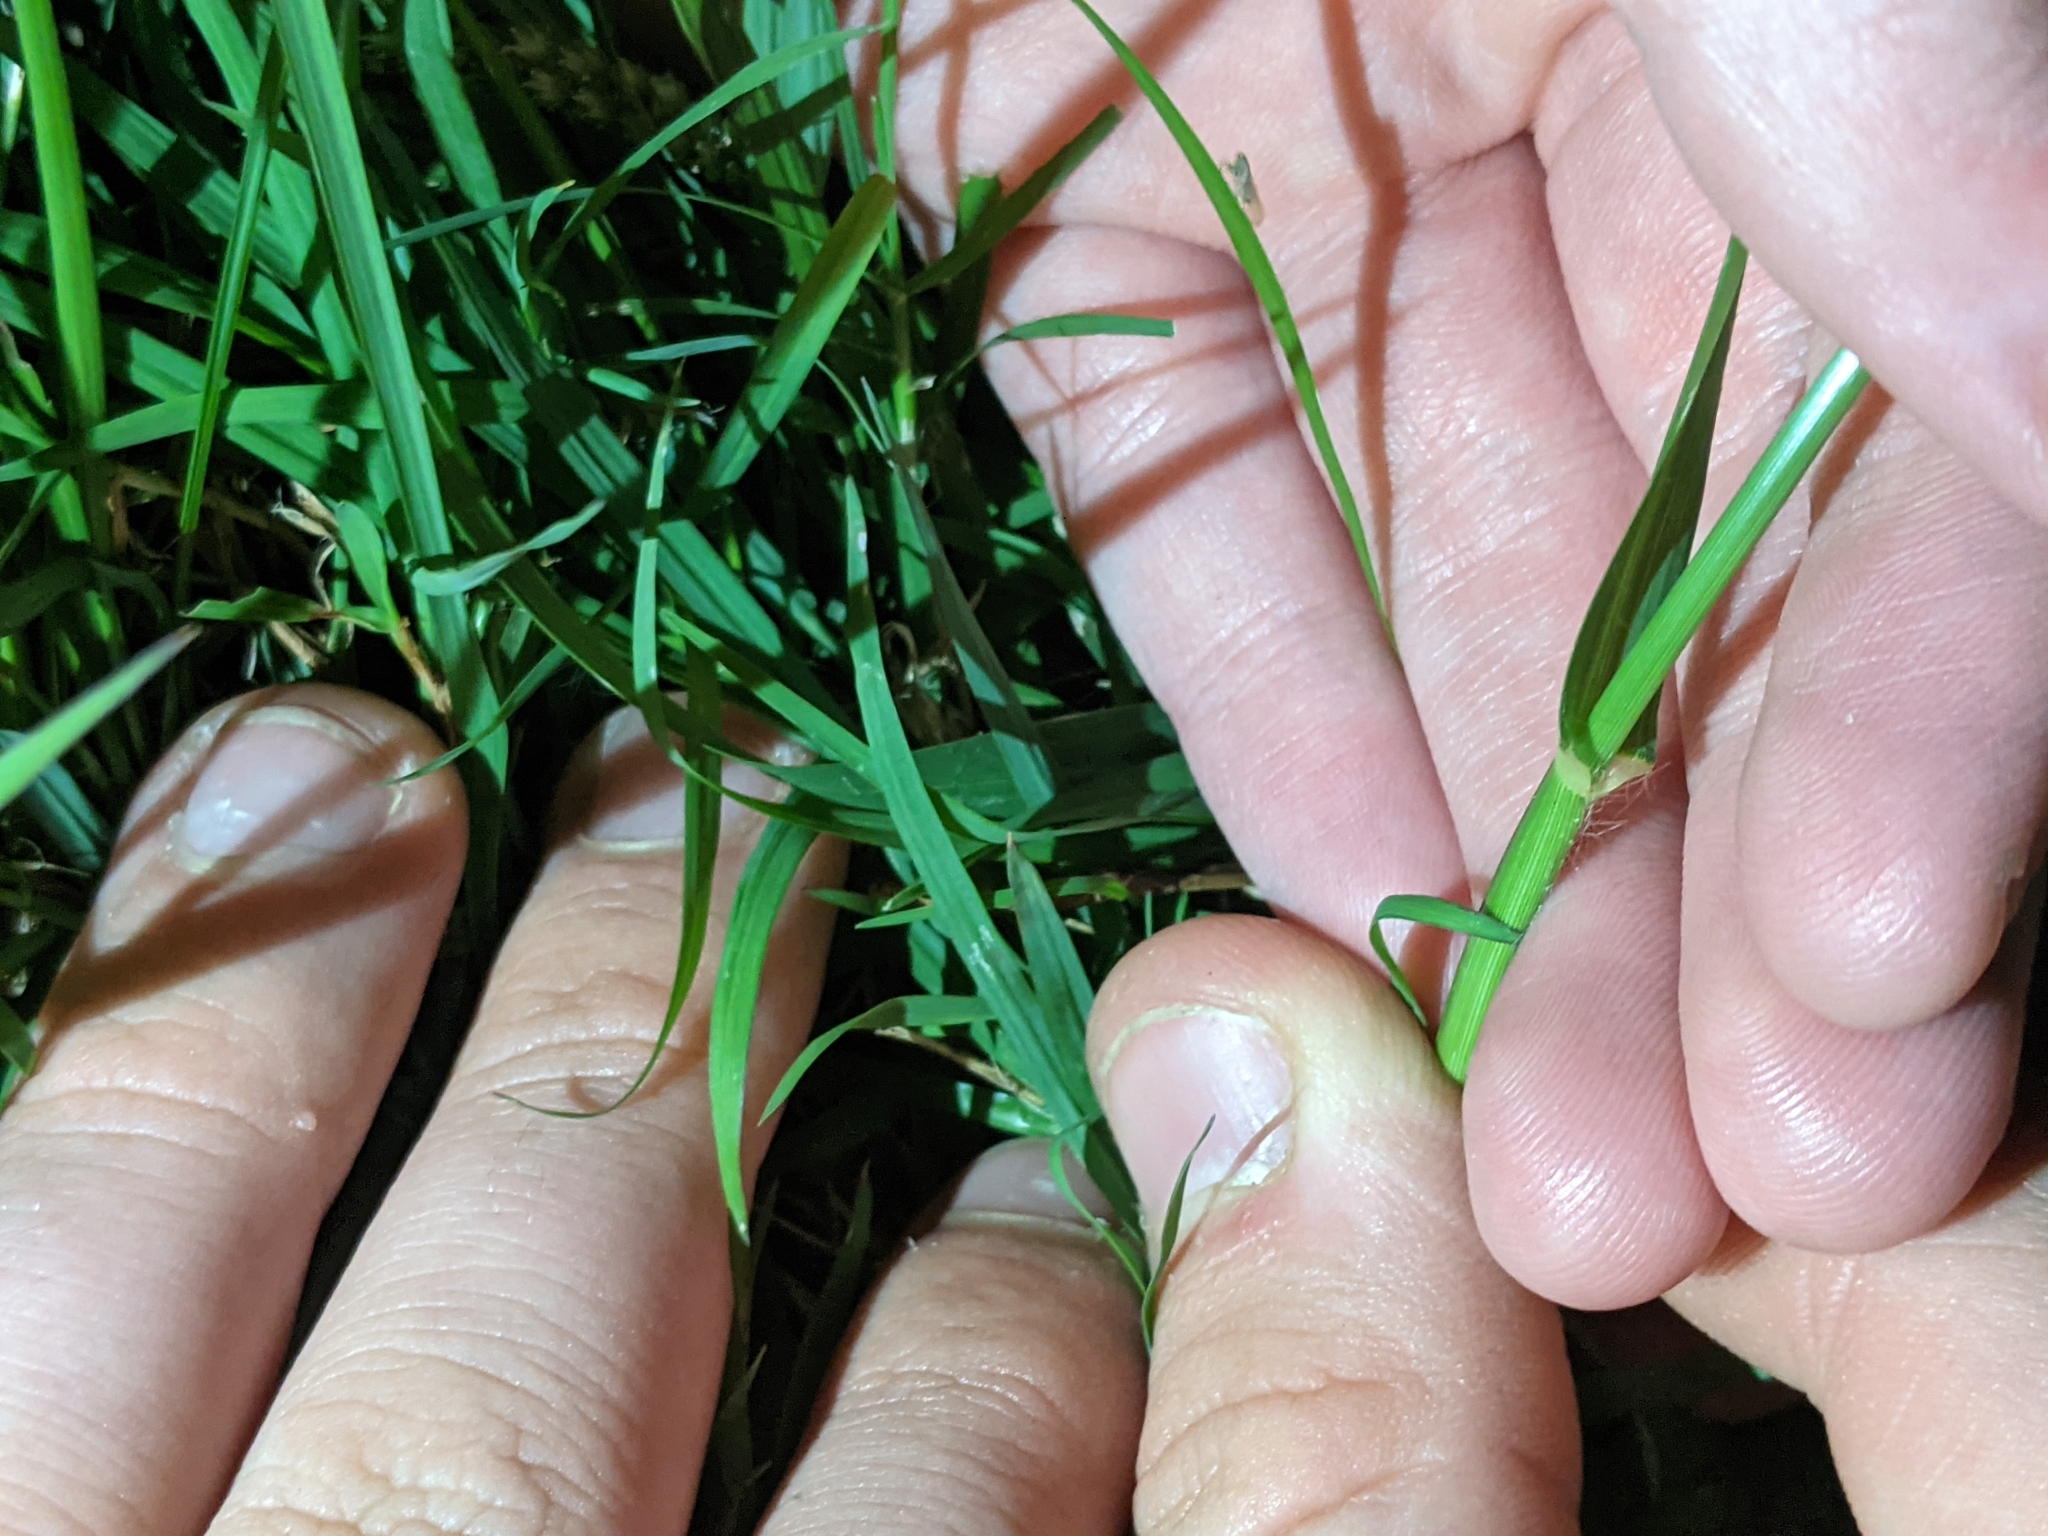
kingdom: Plantae
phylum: Tracheophyta
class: Liliopsida
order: Poales
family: Poaceae
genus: Eleusine
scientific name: Eleusine indica
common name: Yard-grass
